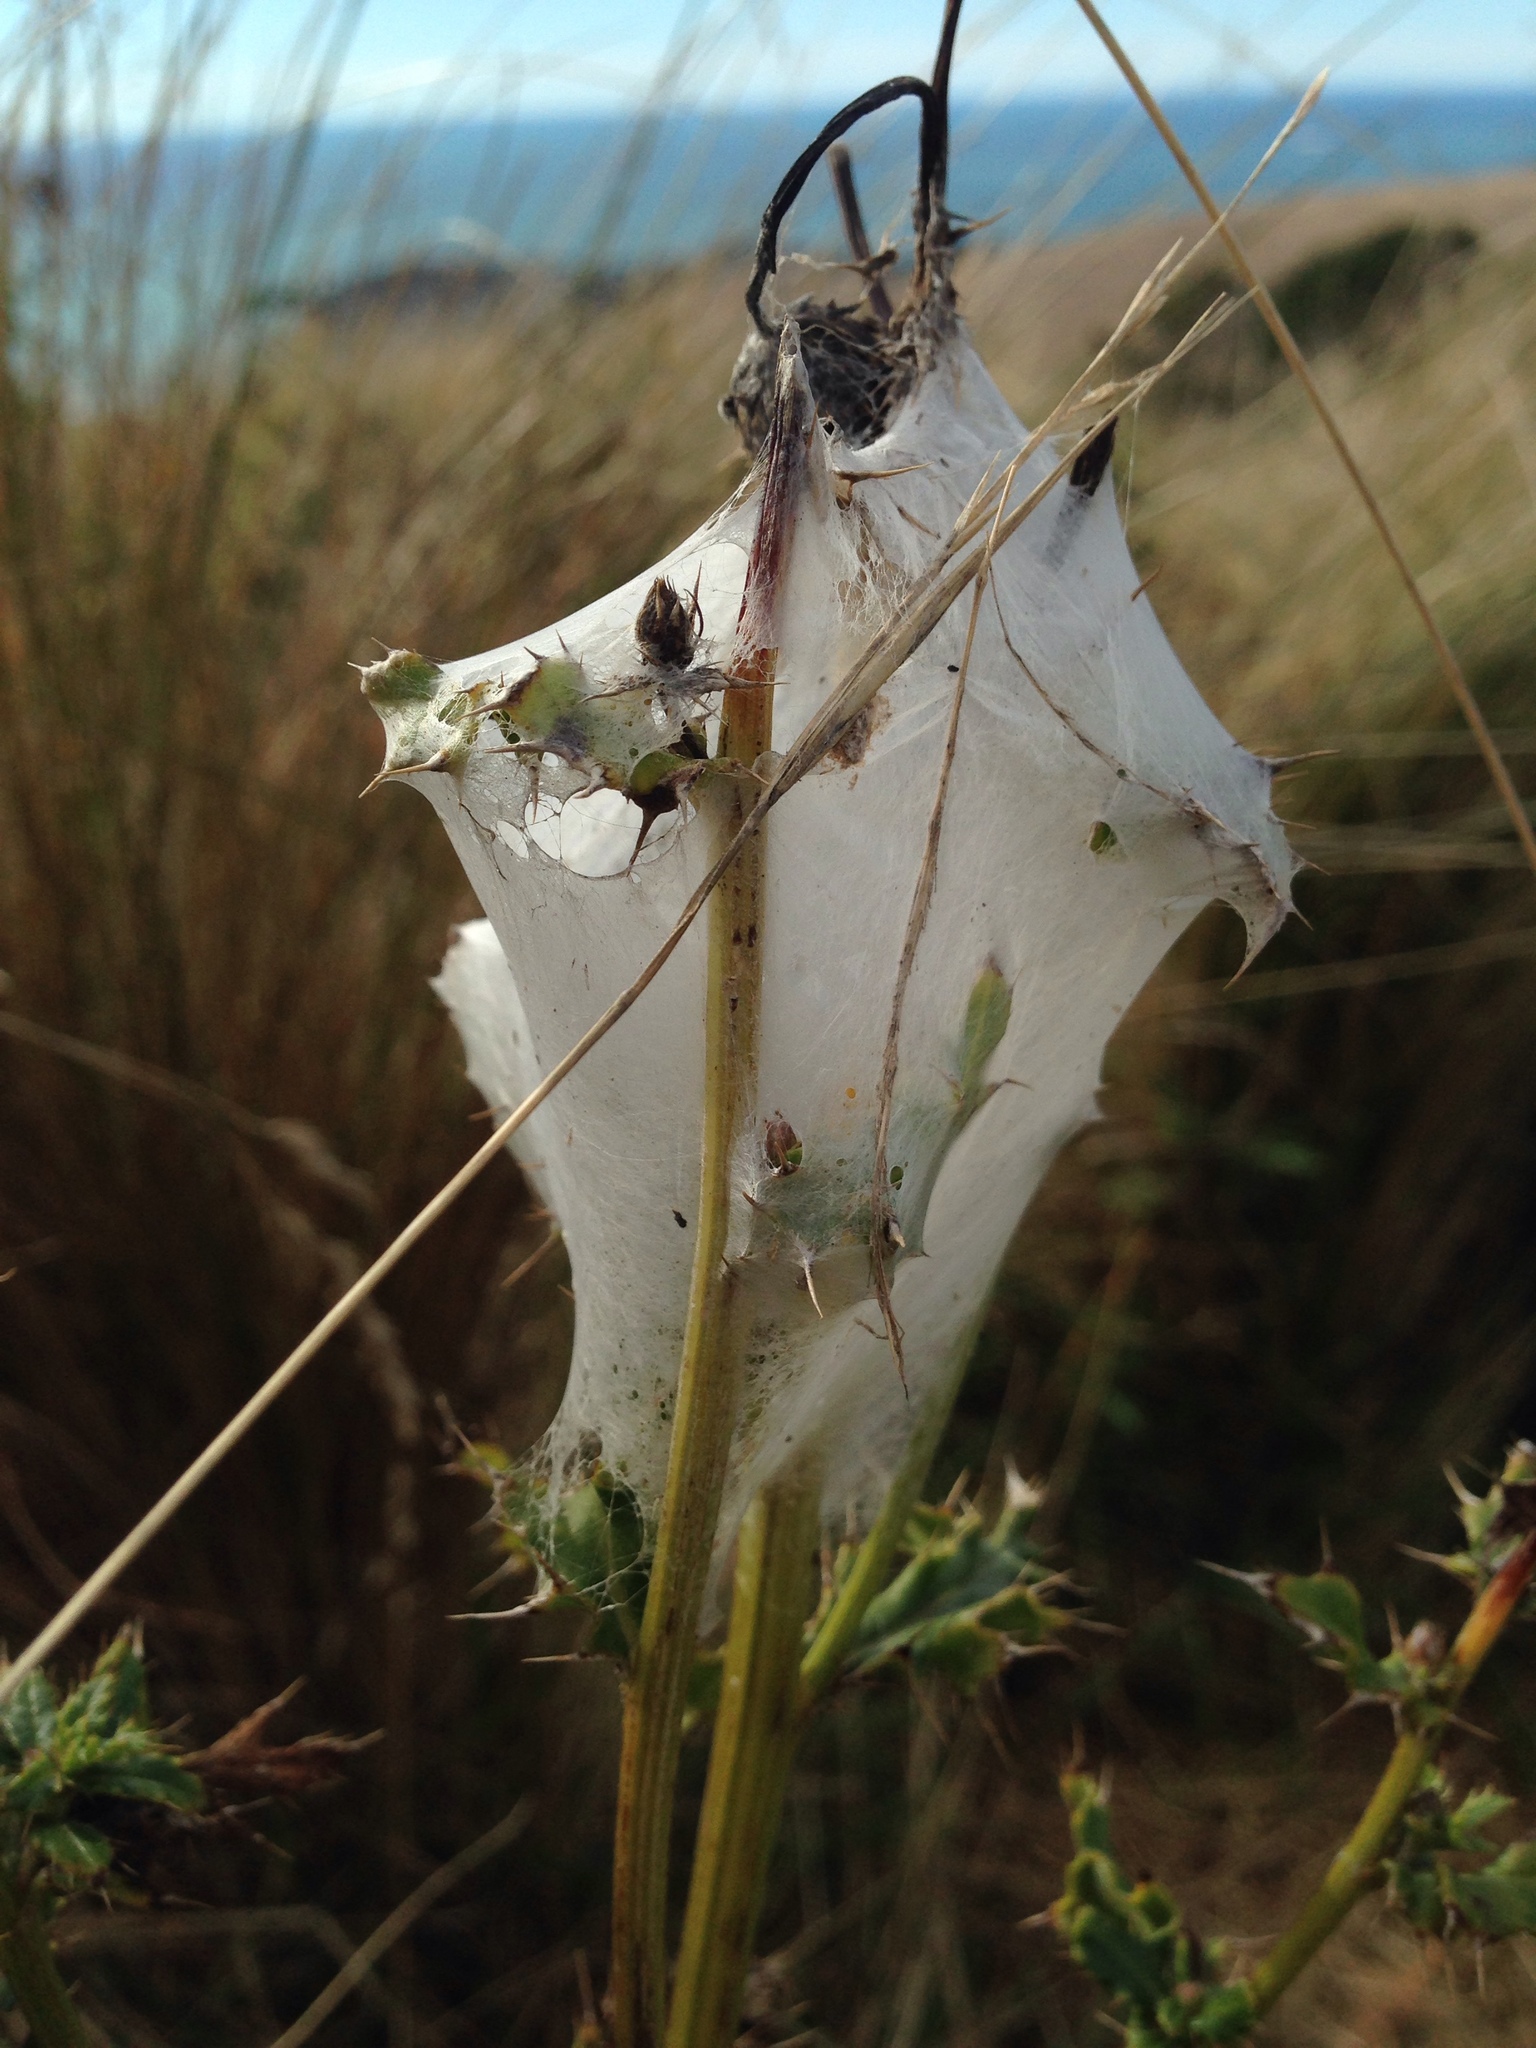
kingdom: Animalia
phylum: Arthropoda
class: Arachnida
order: Araneae
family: Pisauridae
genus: Dolomedes
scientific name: Dolomedes minor
